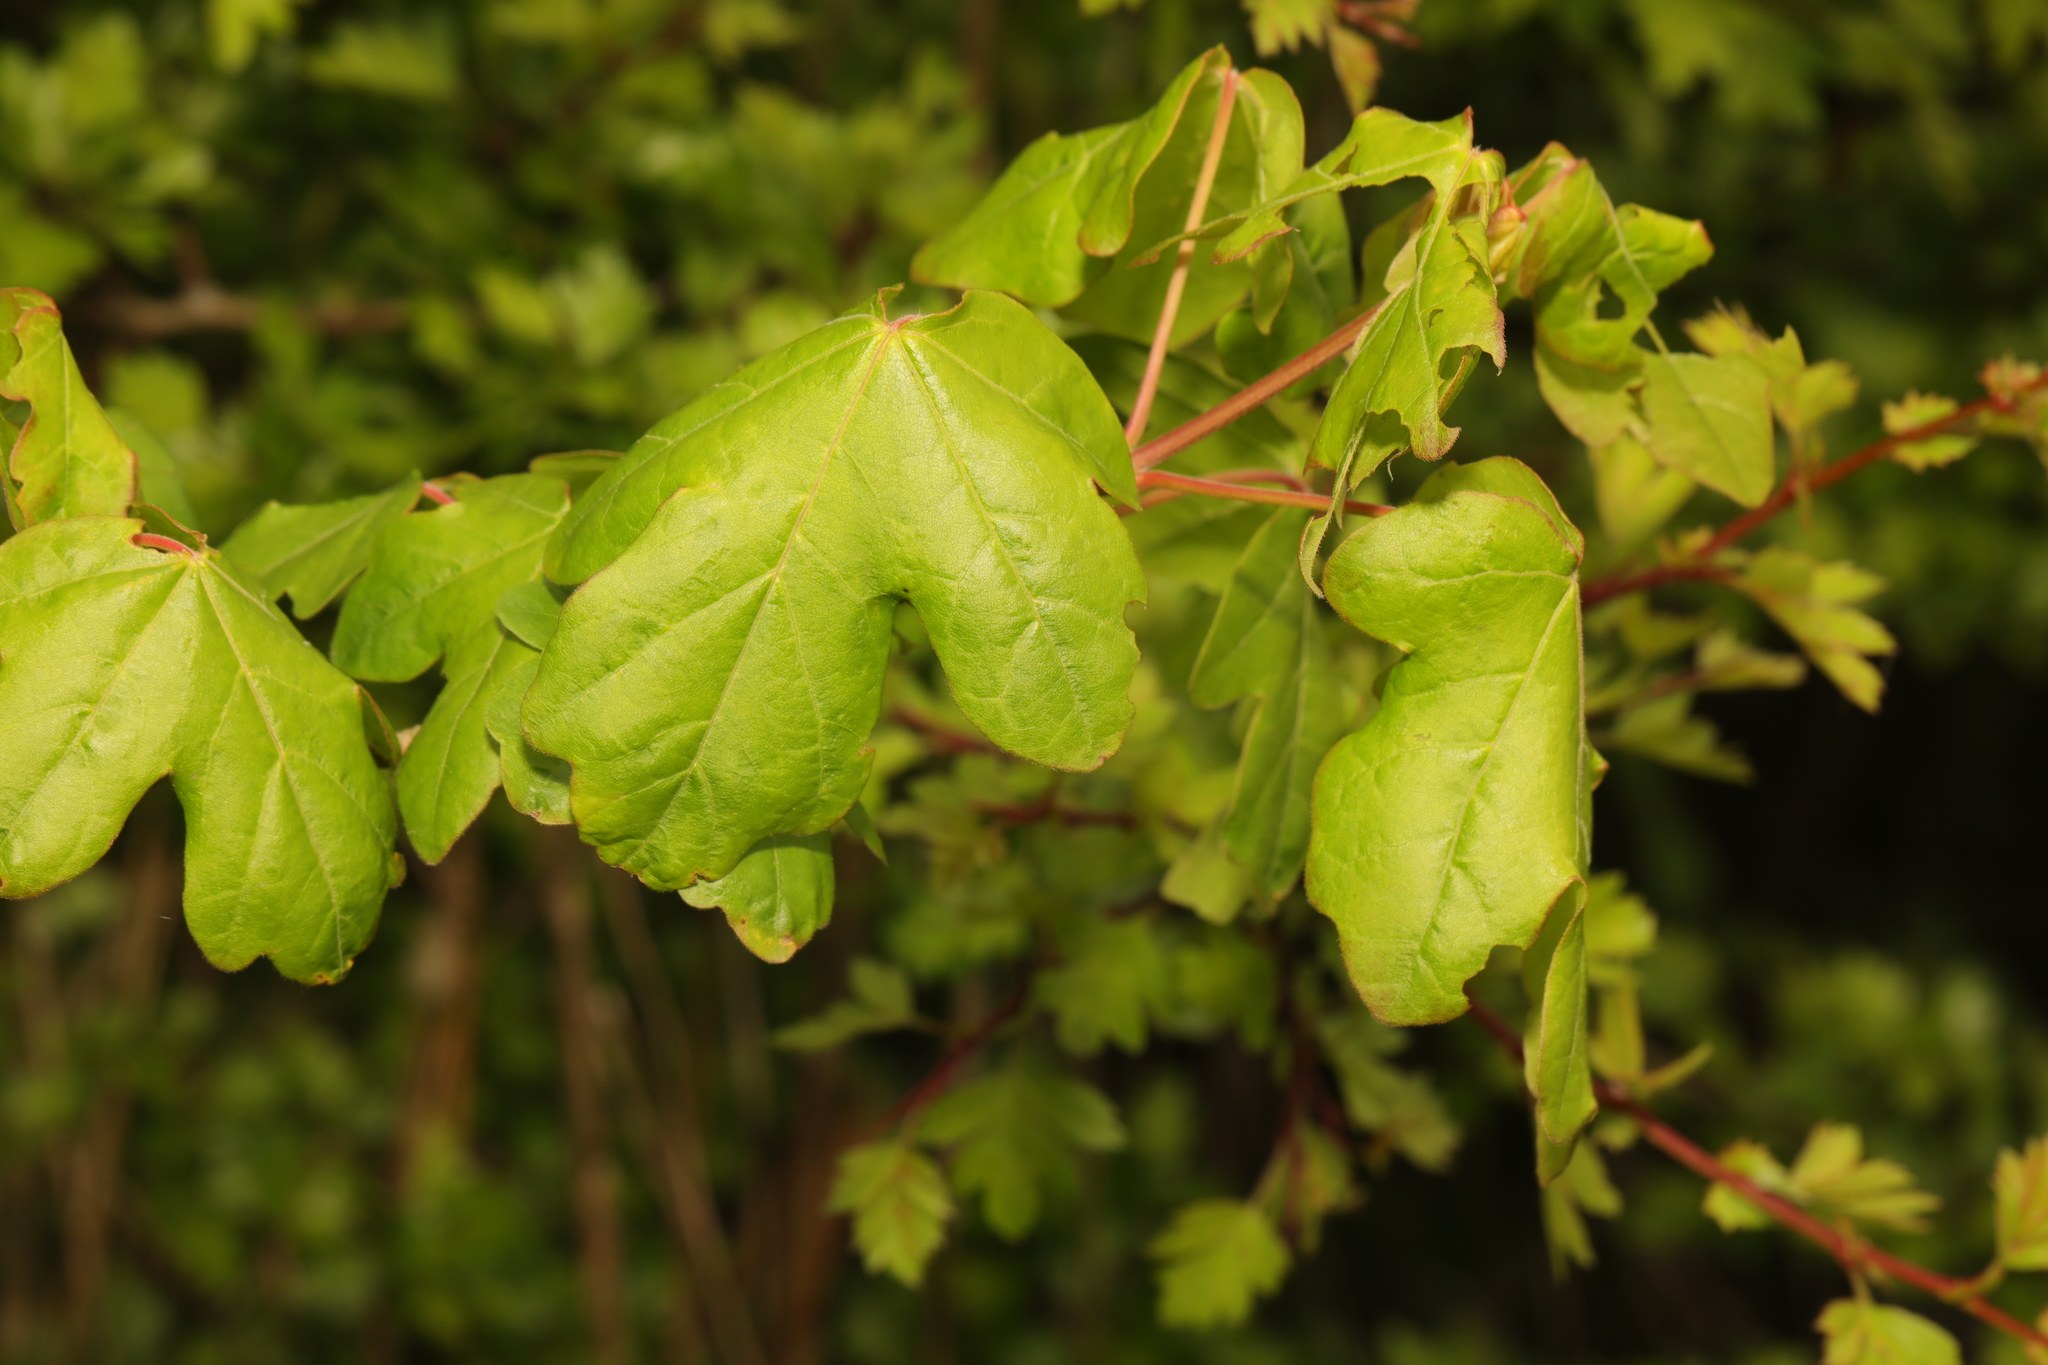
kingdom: Plantae
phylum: Tracheophyta
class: Magnoliopsida
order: Sapindales
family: Sapindaceae
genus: Acer
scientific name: Acer campestre
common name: Field maple
